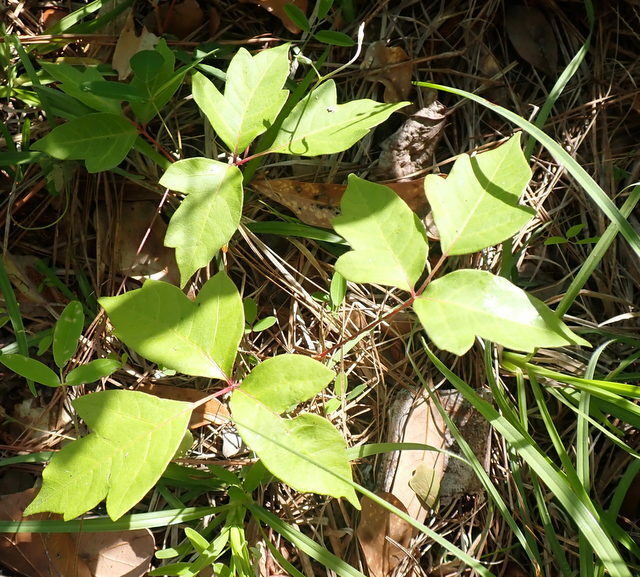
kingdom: Plantae
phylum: Tracheophyta
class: Magnoliopsida
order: Sapindales
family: Anacardiaceae
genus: Toxicodendron
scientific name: Toxicodendron radicans
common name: Poison ivy
